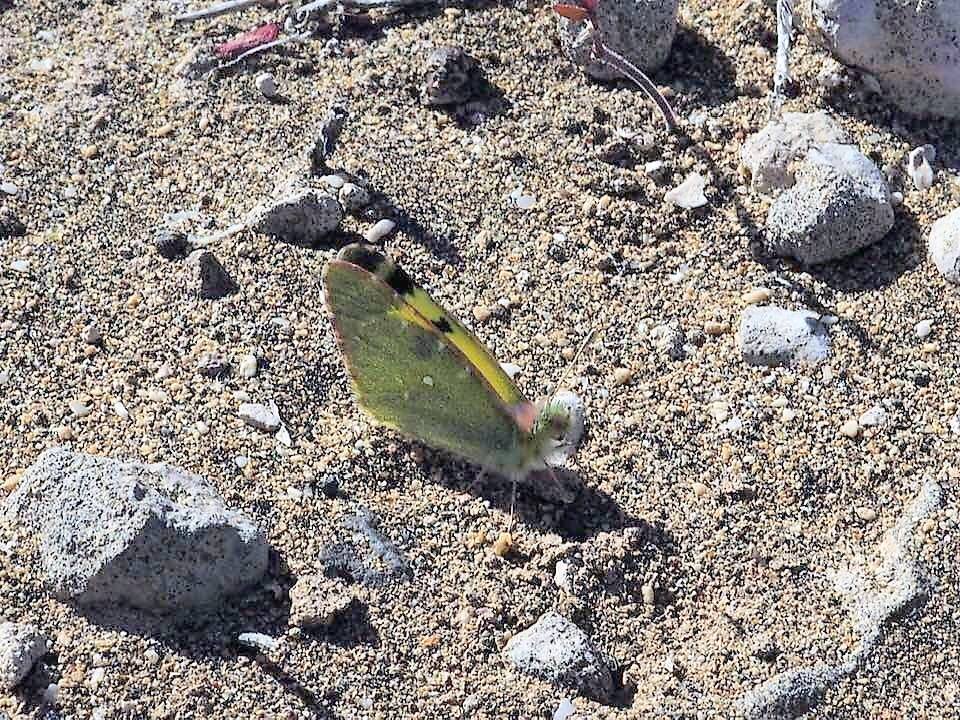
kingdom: Animalia
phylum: Arthropoda
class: Insecta
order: Lepidoptera
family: Pieridae
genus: Elphinstonia
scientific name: Elphinstonia charlonia
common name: Greenish black-tip
